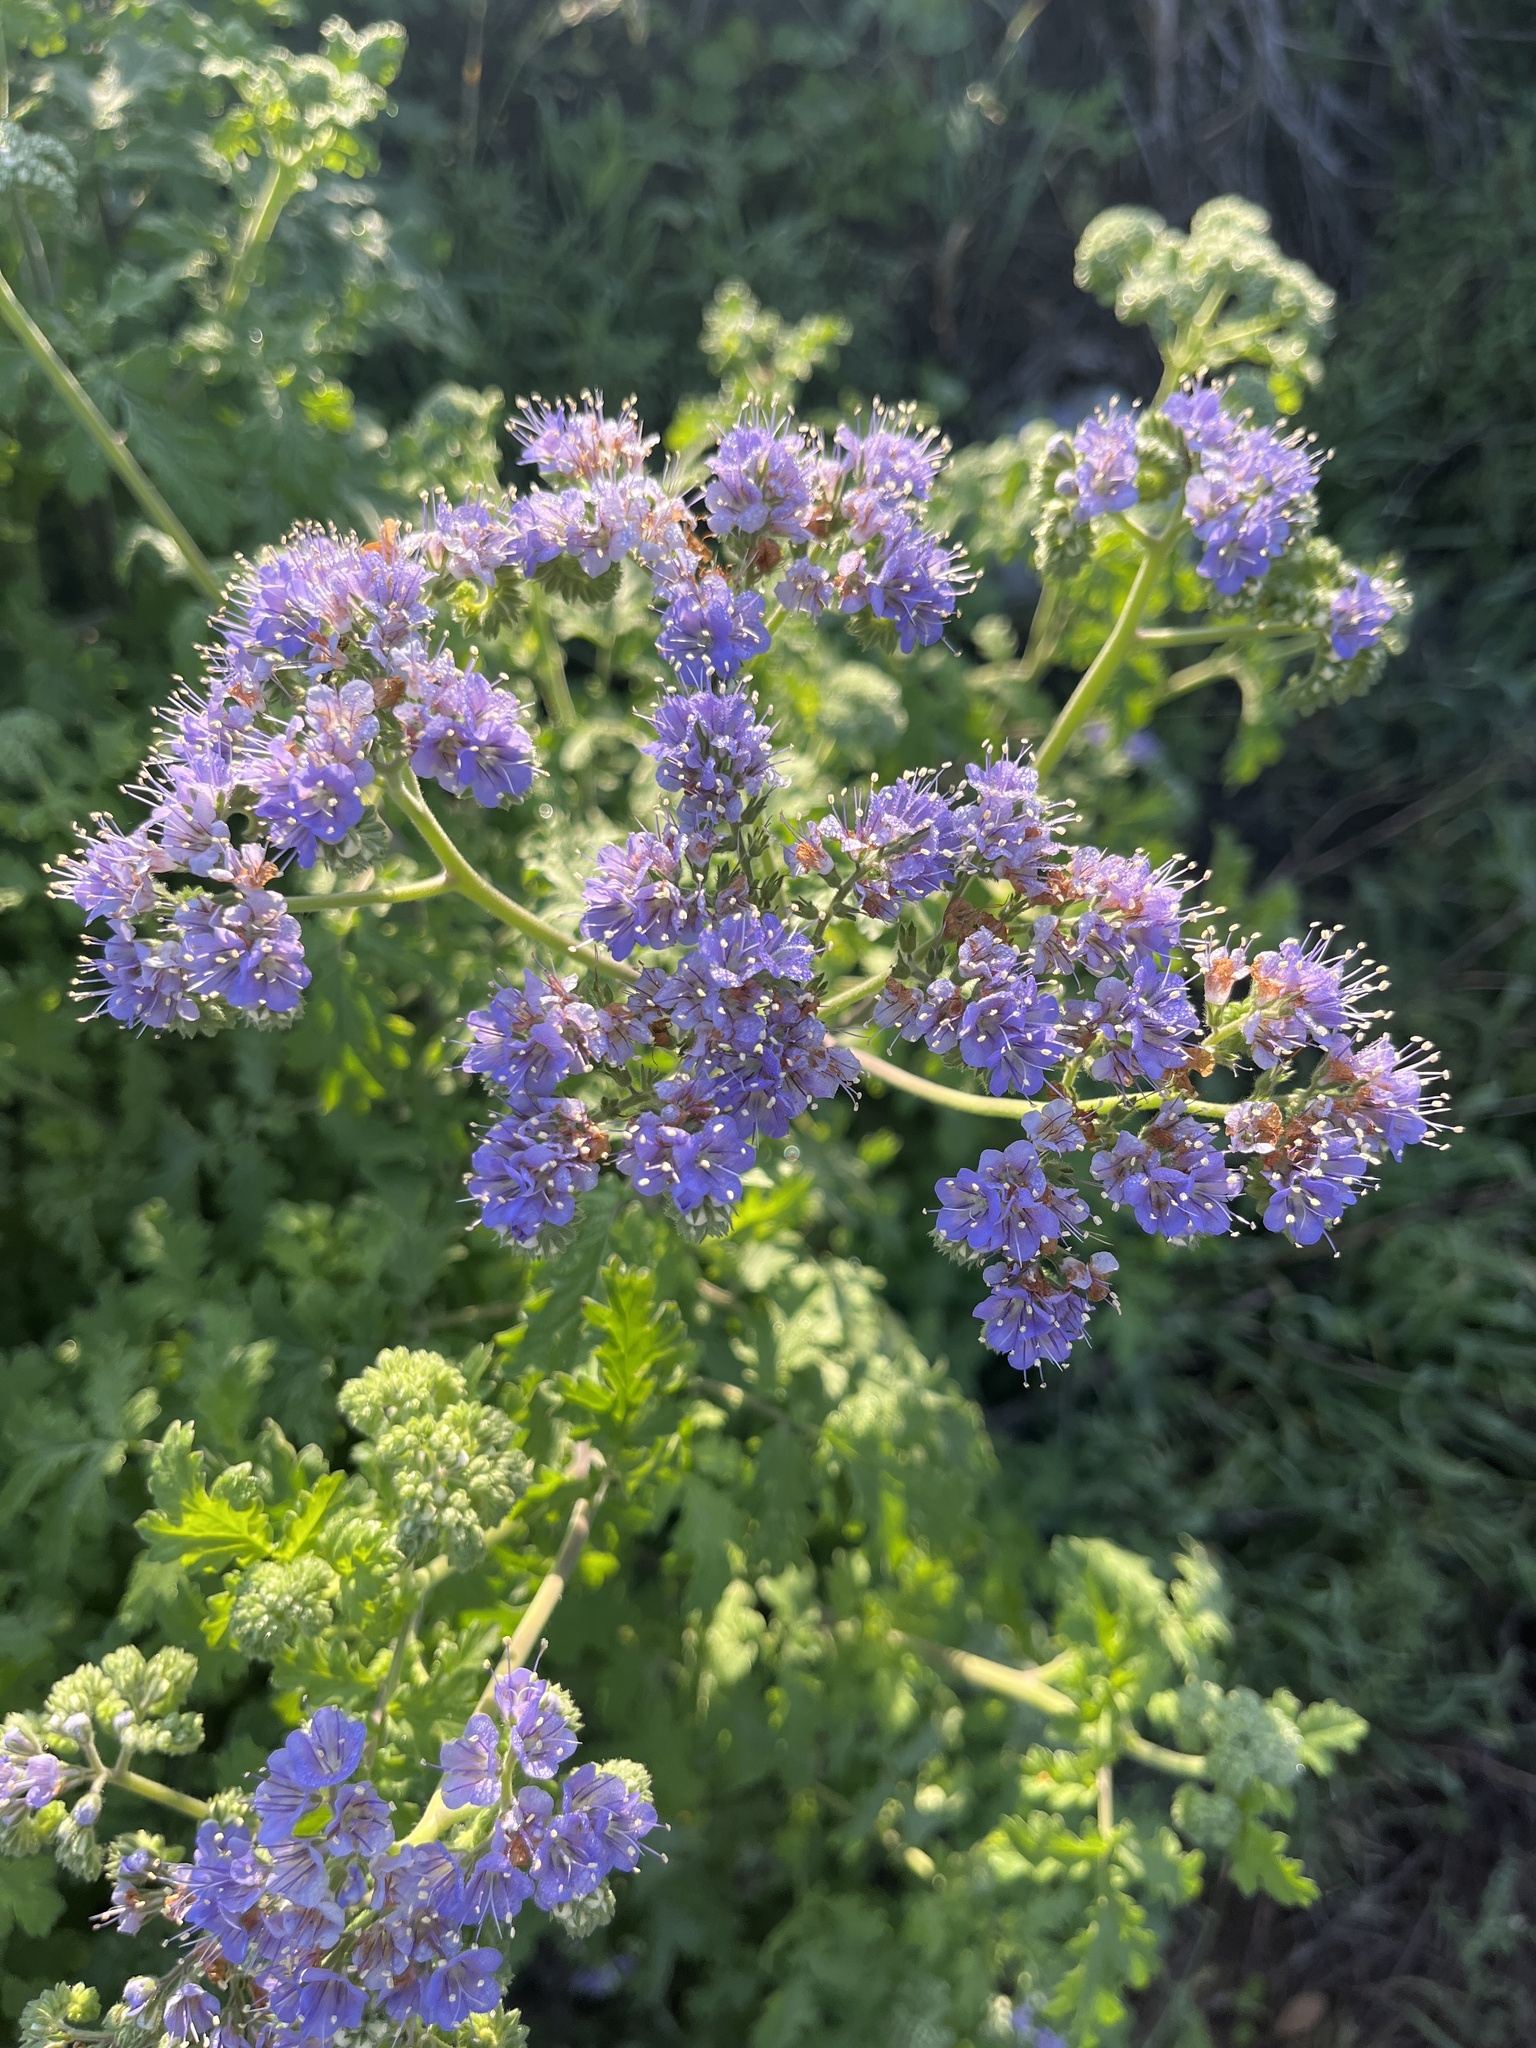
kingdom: Plantae
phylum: Tracheophyta
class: Magnoliopsida
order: Boraginales
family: Hydrophyllaceae
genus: Phacelia
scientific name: Phacelia congesta
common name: Blue curls
